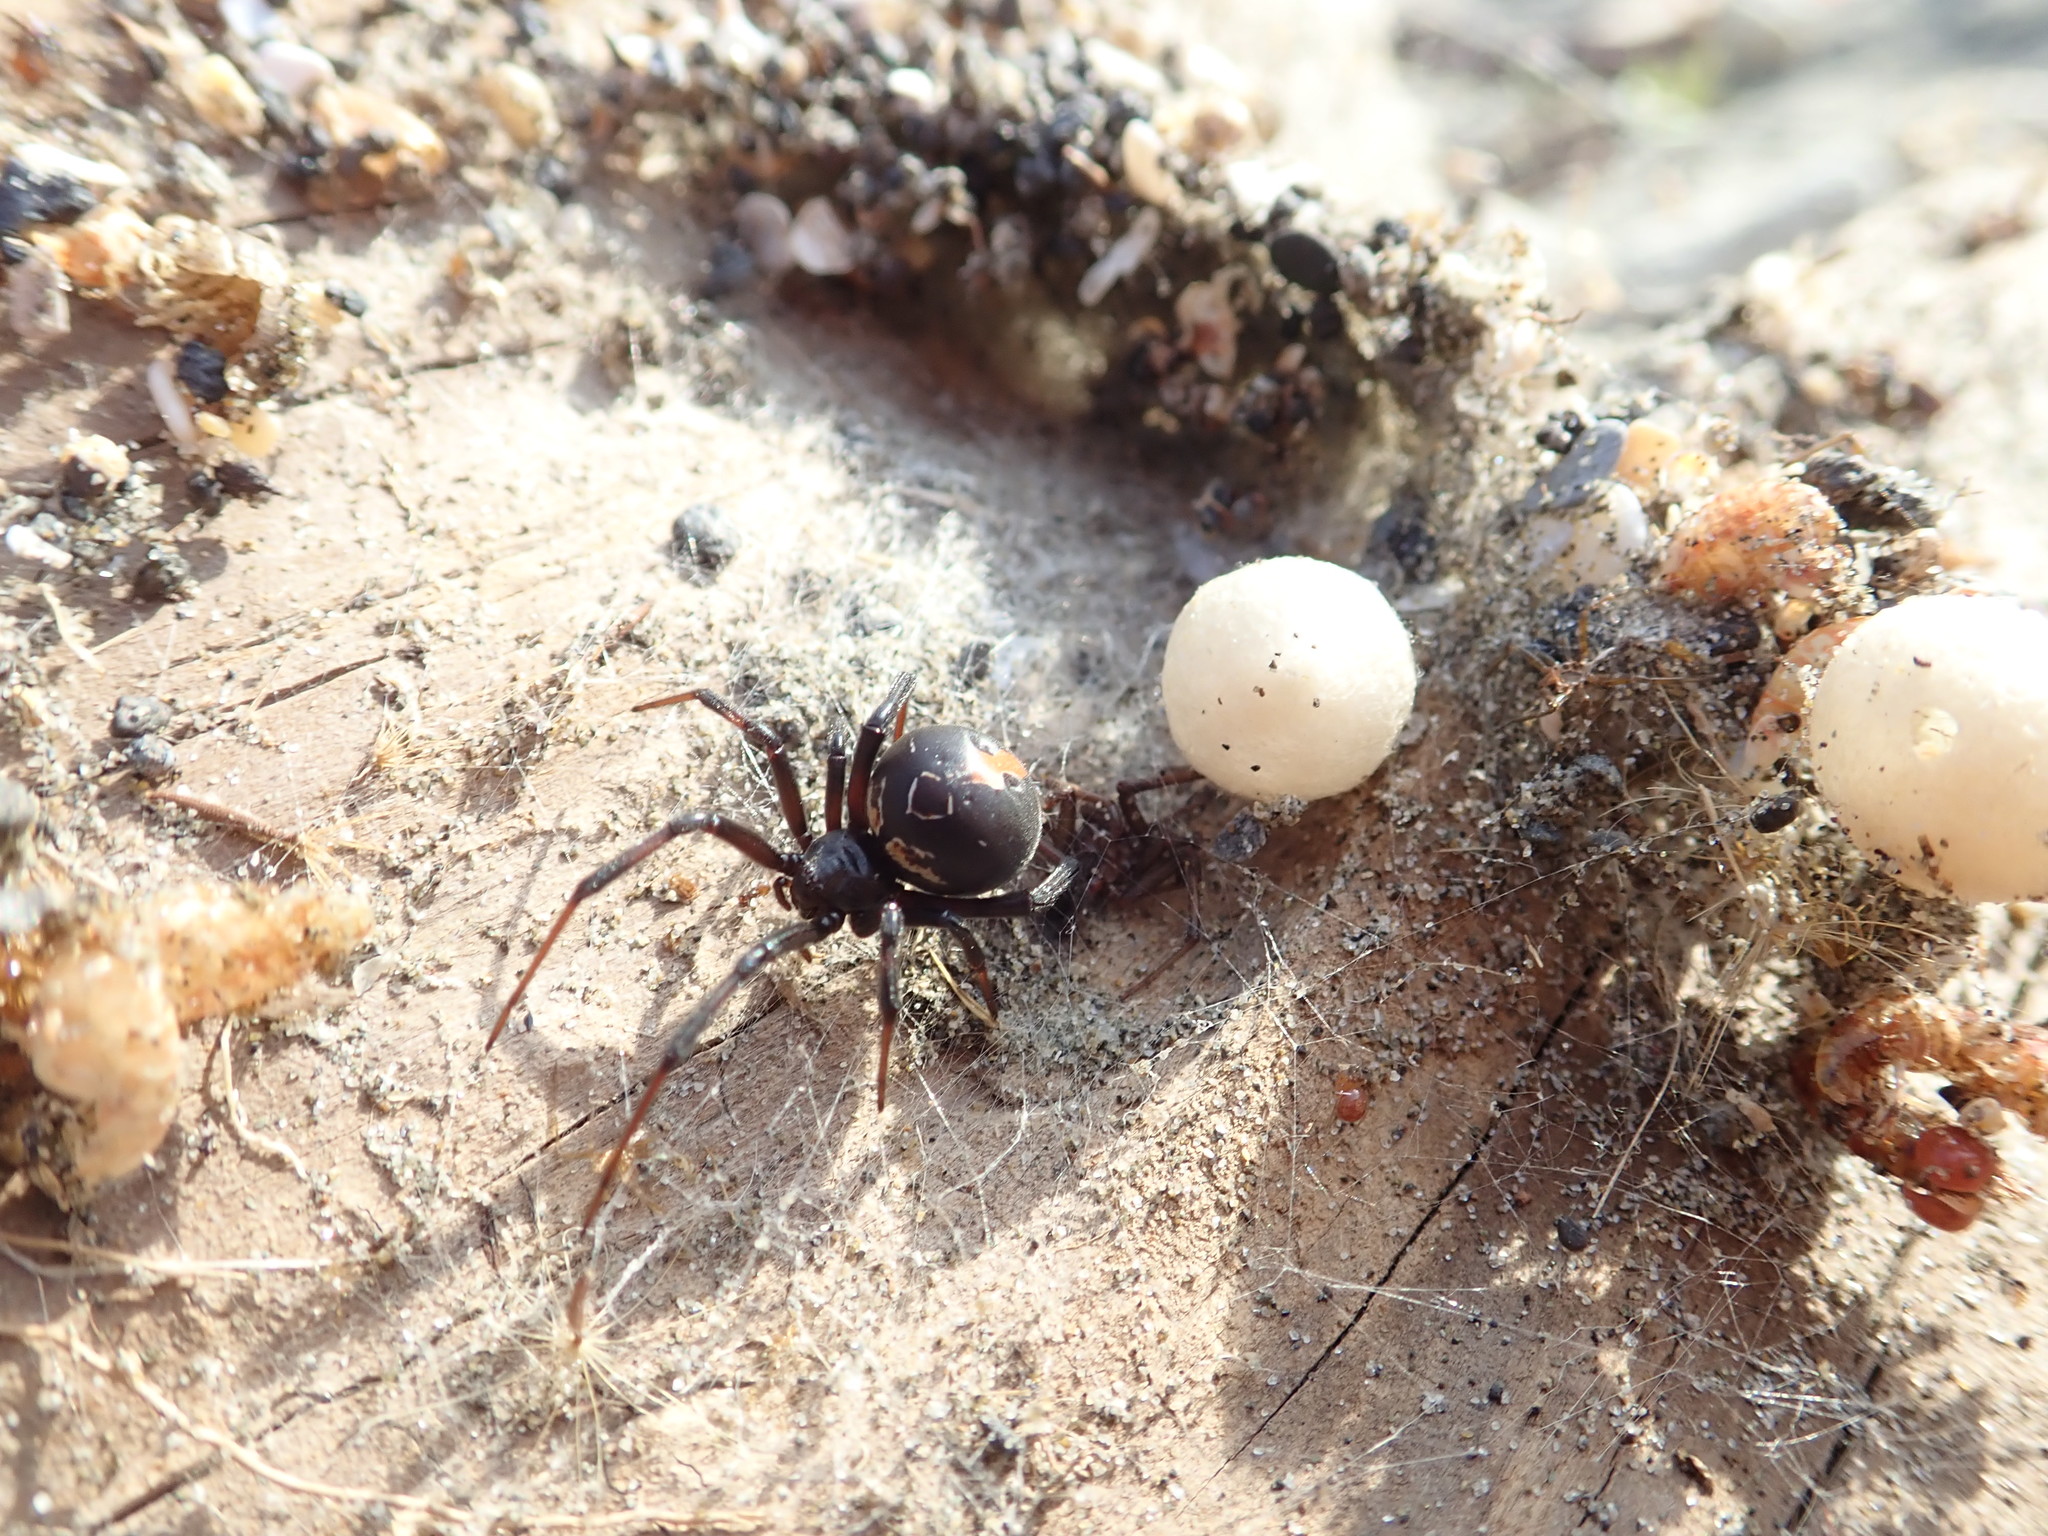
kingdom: Animalia
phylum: Arthropoda
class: Arachnida
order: Araneae
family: Theridiidae
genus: Latrodectus
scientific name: Latrodectus katipo
